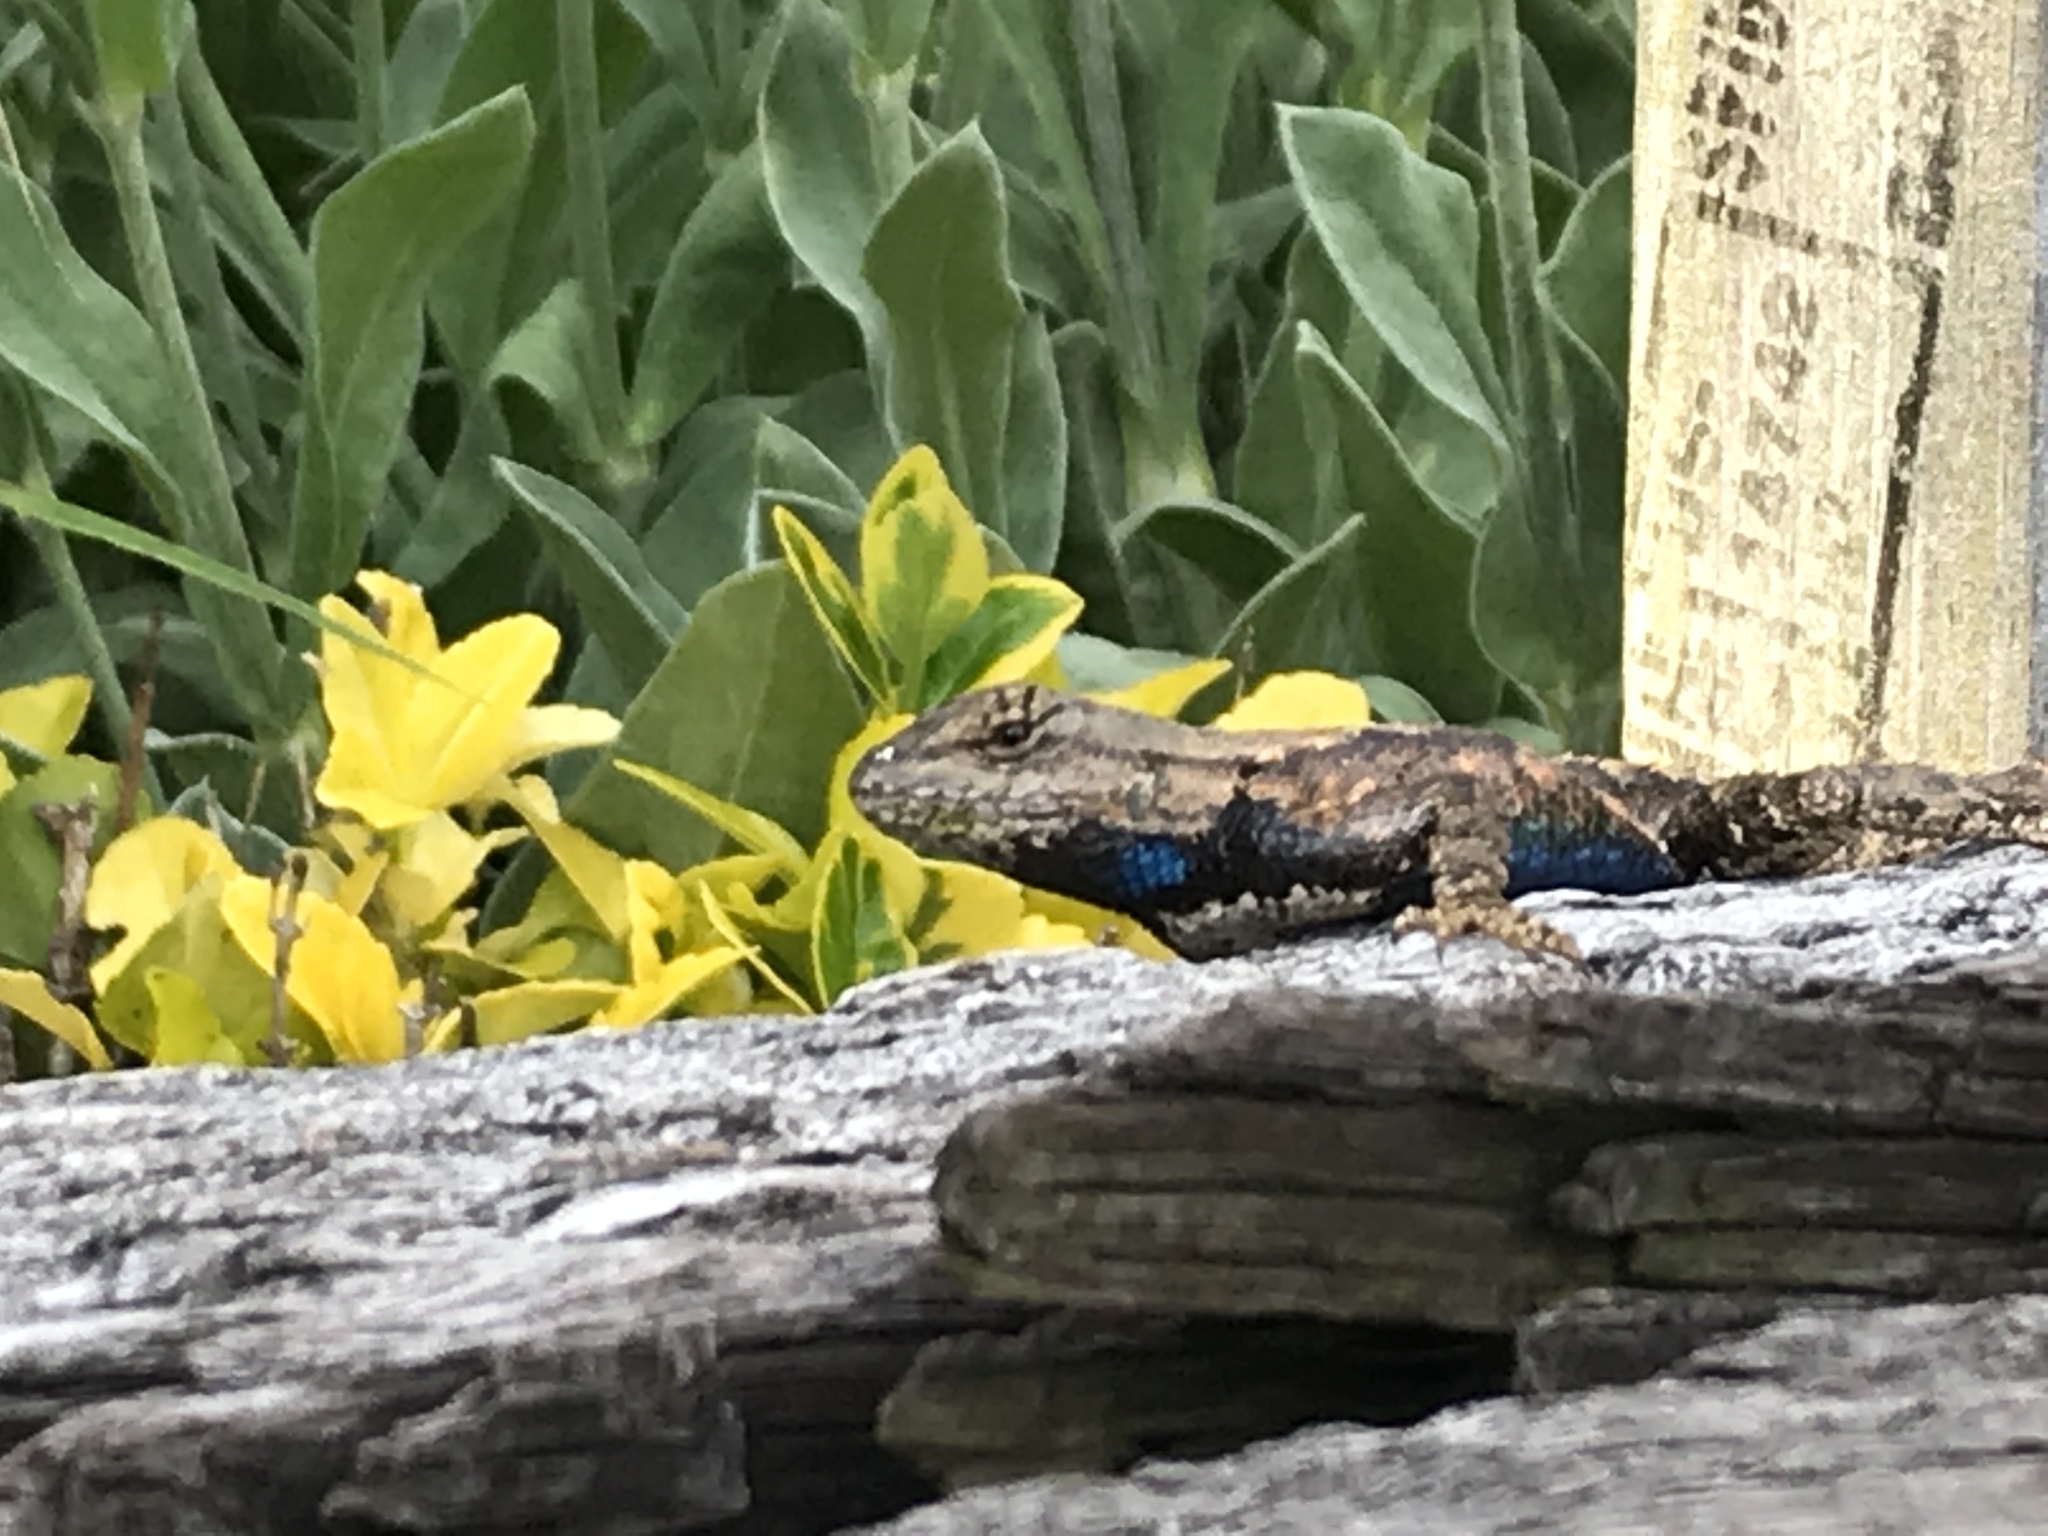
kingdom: Animalia
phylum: Chordata
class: Squamata
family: Phrynosomatidae
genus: Sceloporus
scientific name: Sceloporus undulatus
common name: Eastern fence lizard
